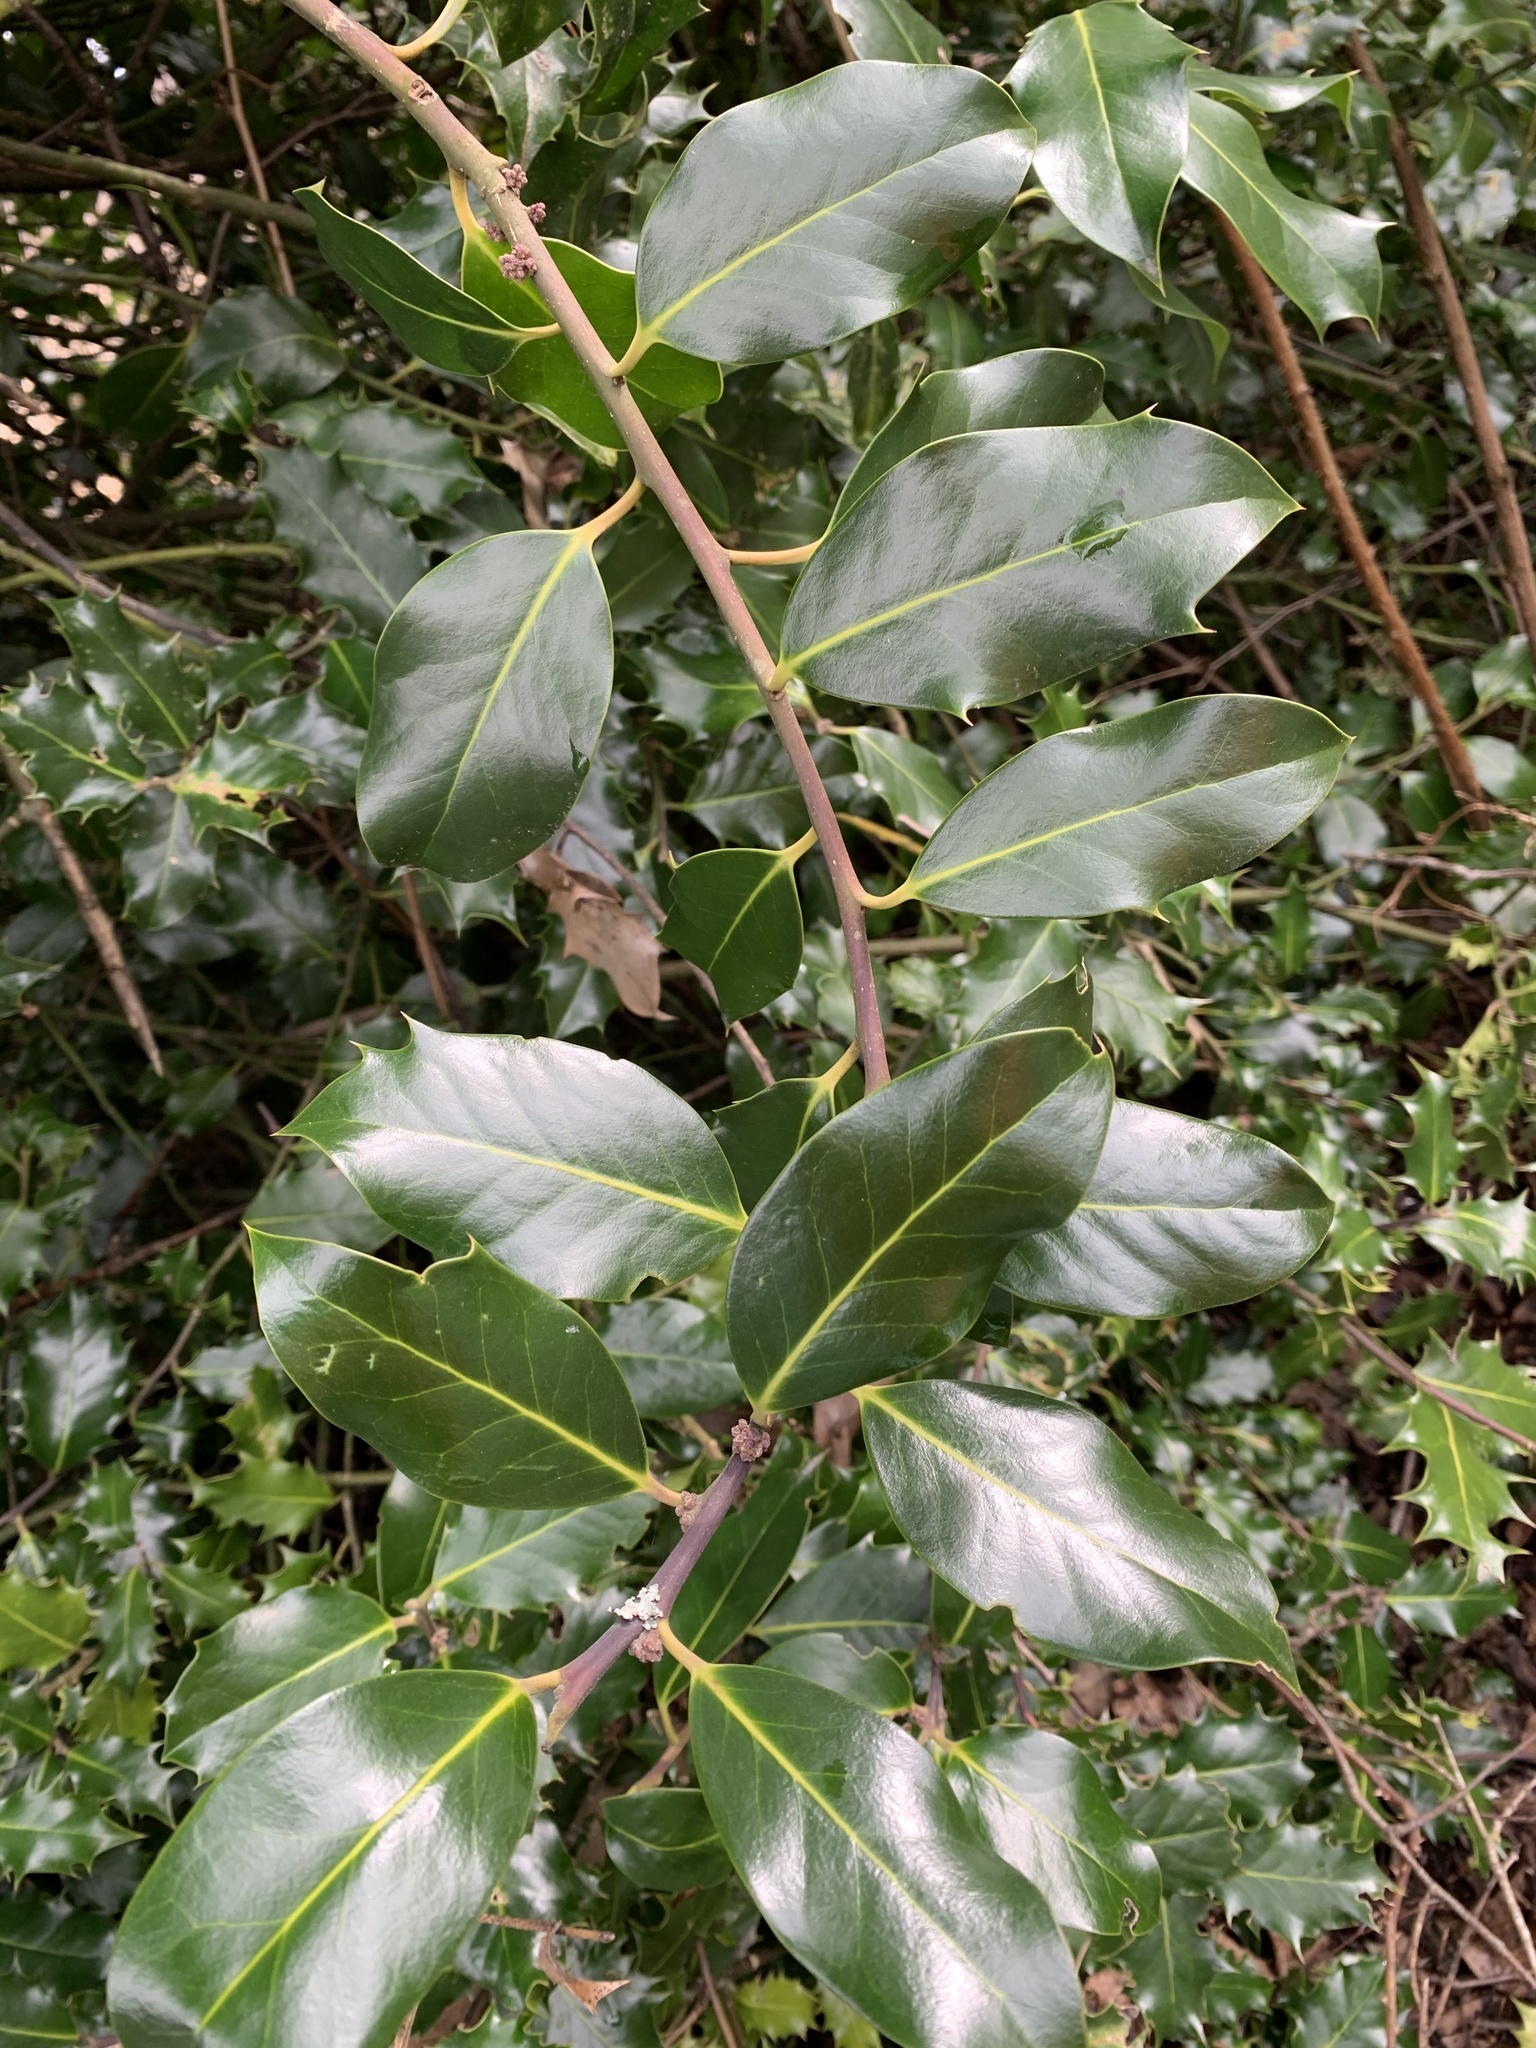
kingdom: Plantae
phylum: Tracheophyta
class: Magnoliopsida
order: Aquifoliales
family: Aquifoliaceae
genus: Ilex
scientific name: Ilex aquifolium
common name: English holly
